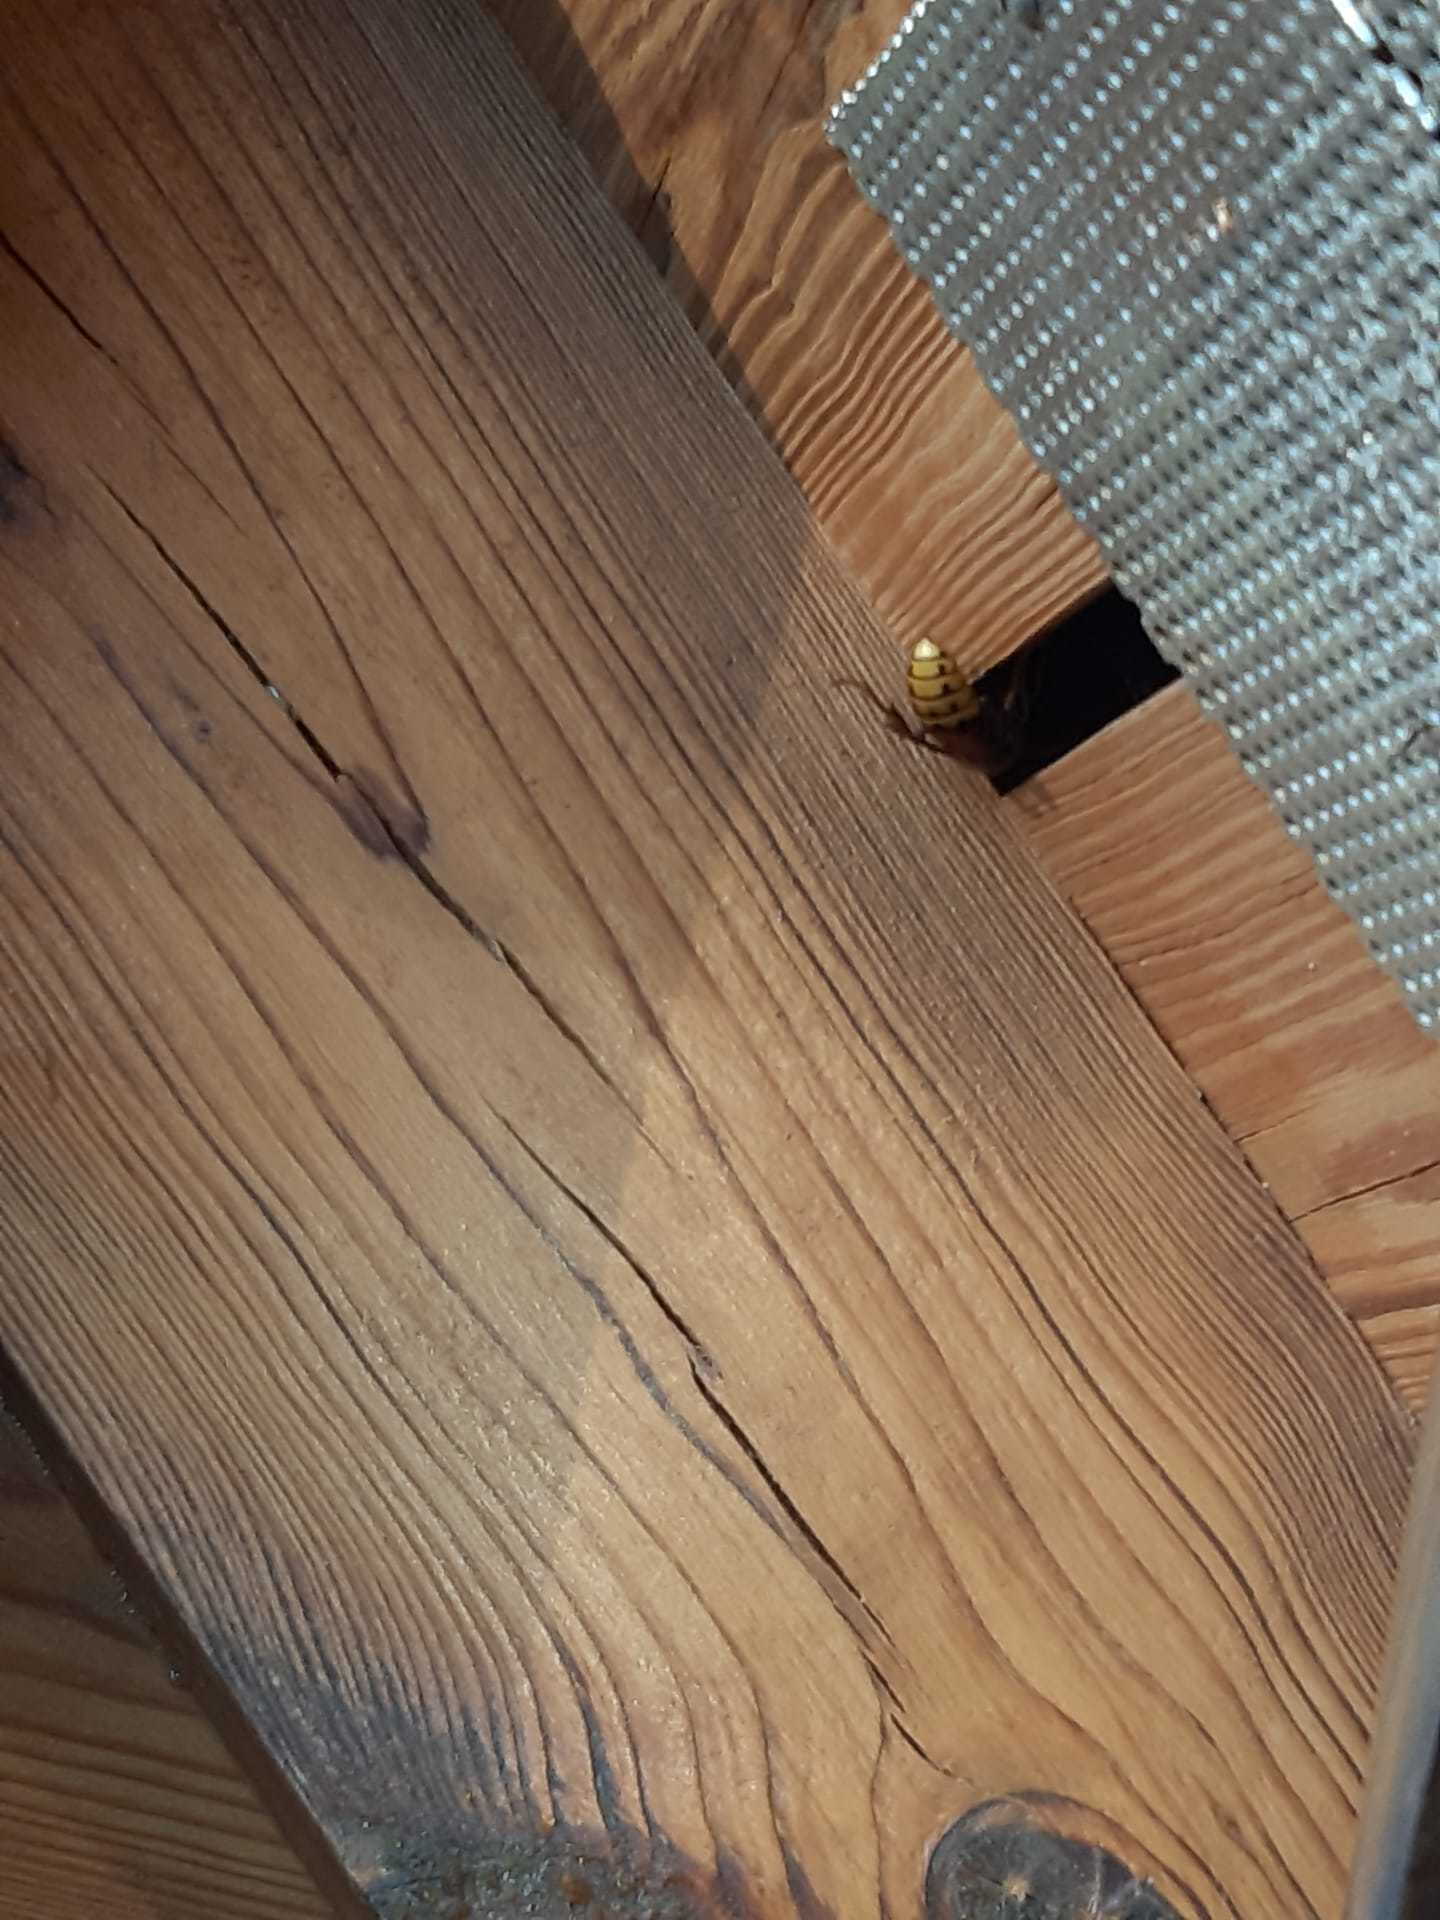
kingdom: Animalia
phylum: Arthropoda
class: Insecta
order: Hymenoptera
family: Vespidae
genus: Vespa
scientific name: Vespa crabro
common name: Hornet
